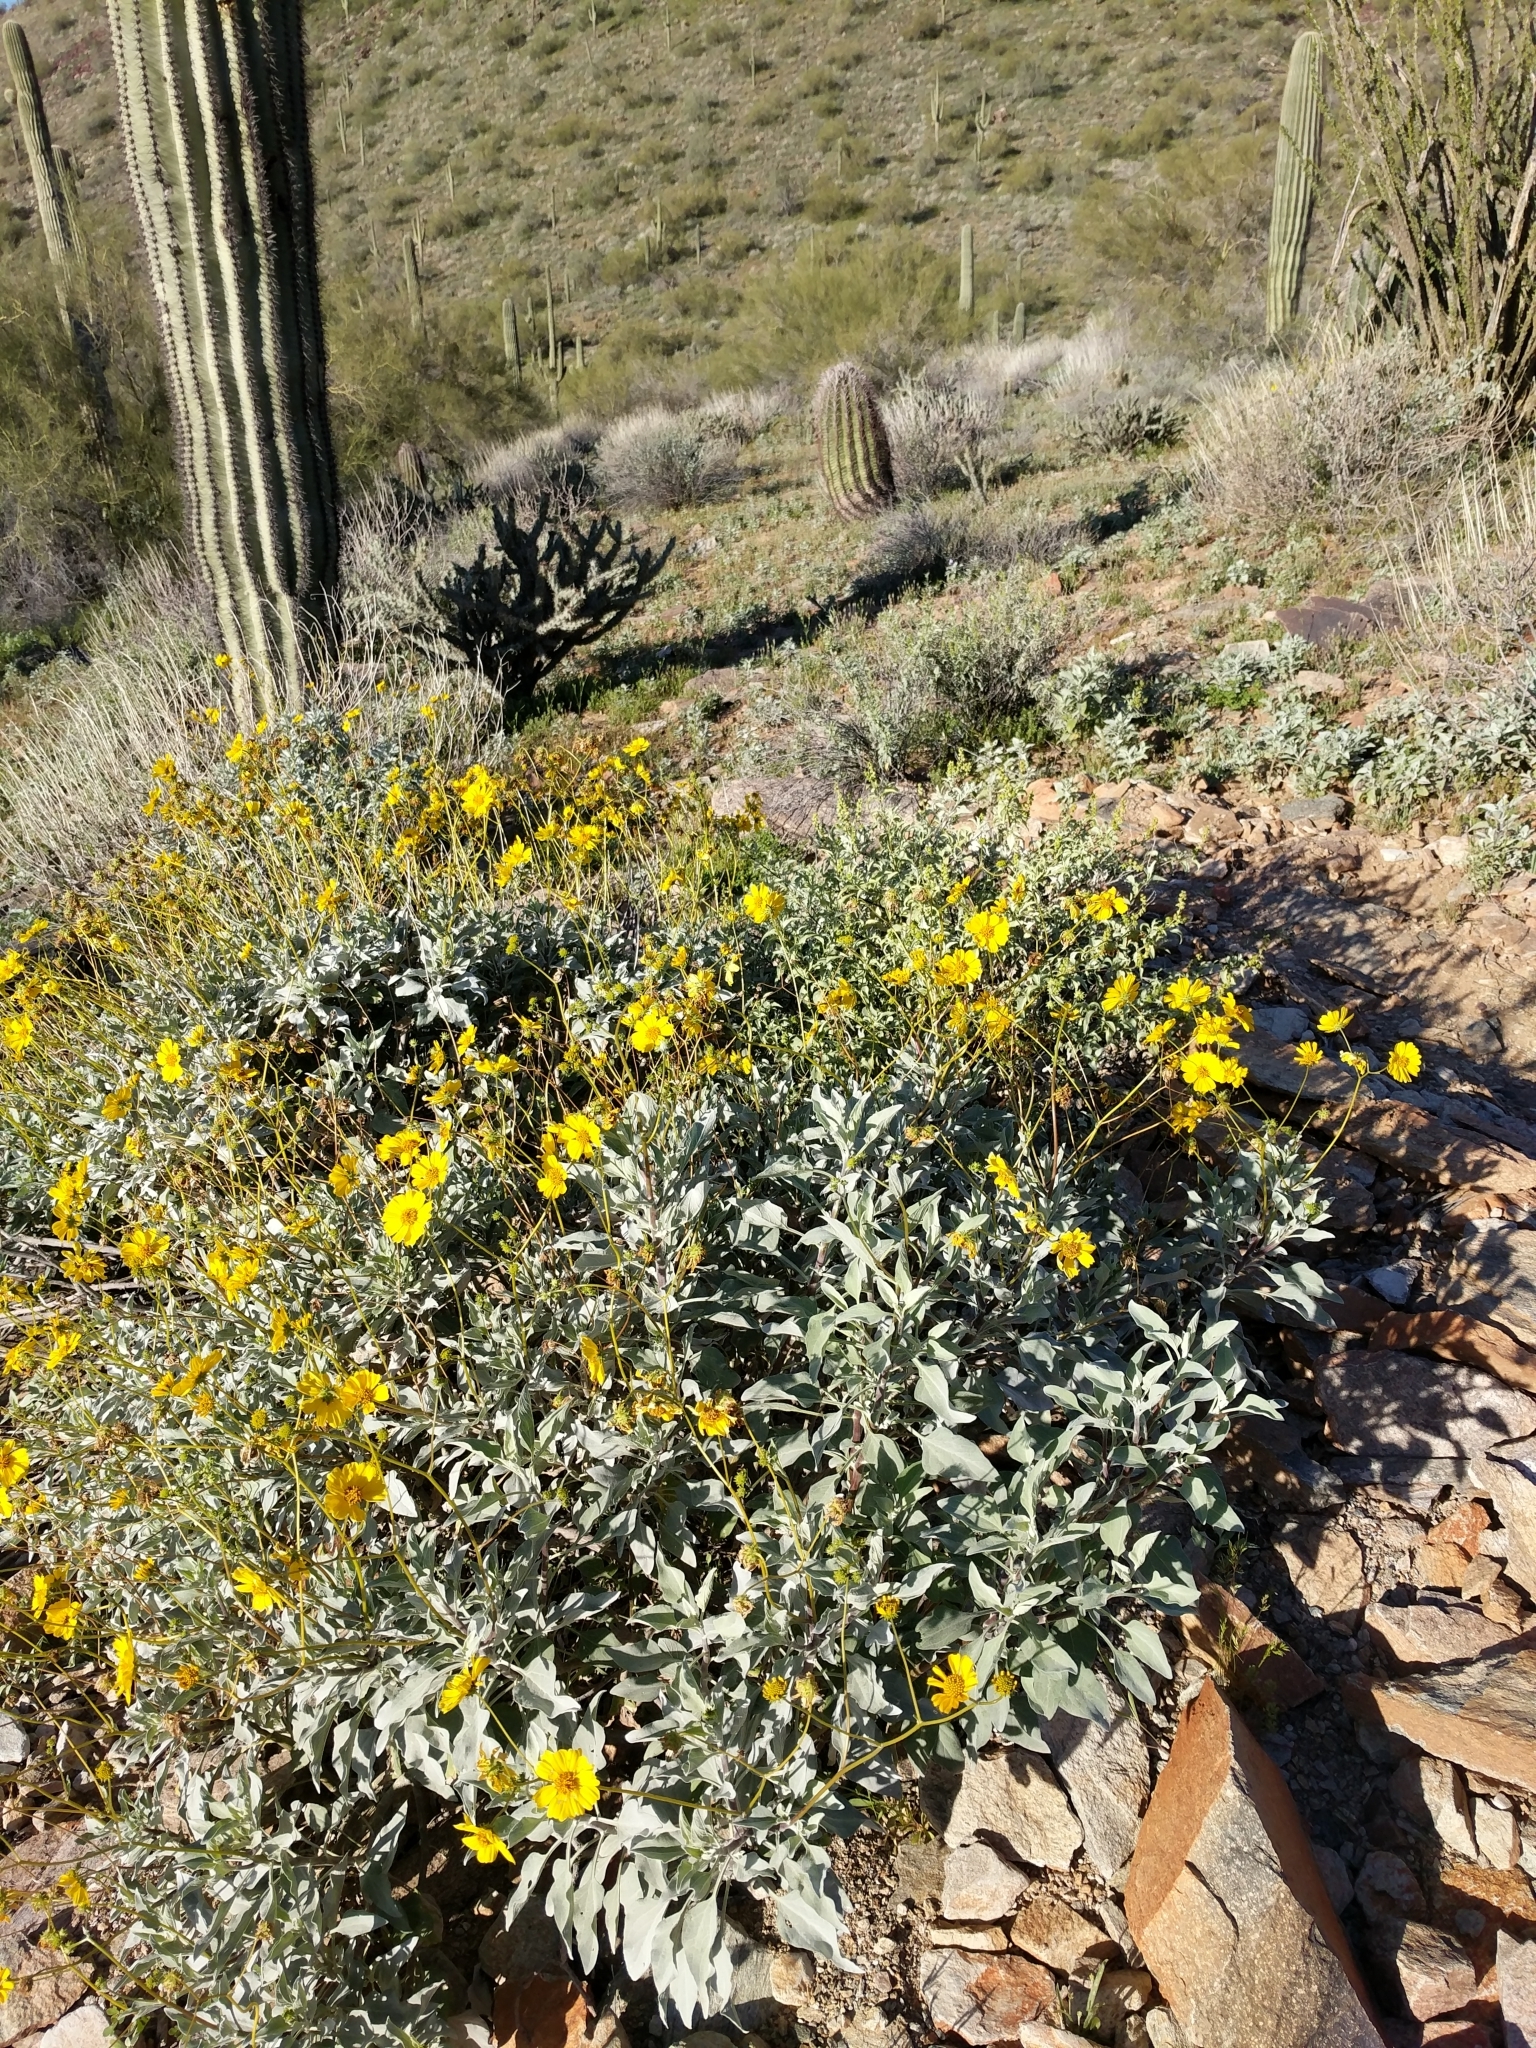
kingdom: Plantae
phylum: Tracheophyta
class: Magnoliopsida
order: Asterales
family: Asteraceae
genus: Encelia
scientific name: Encelia farinosa
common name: Brittlebush
